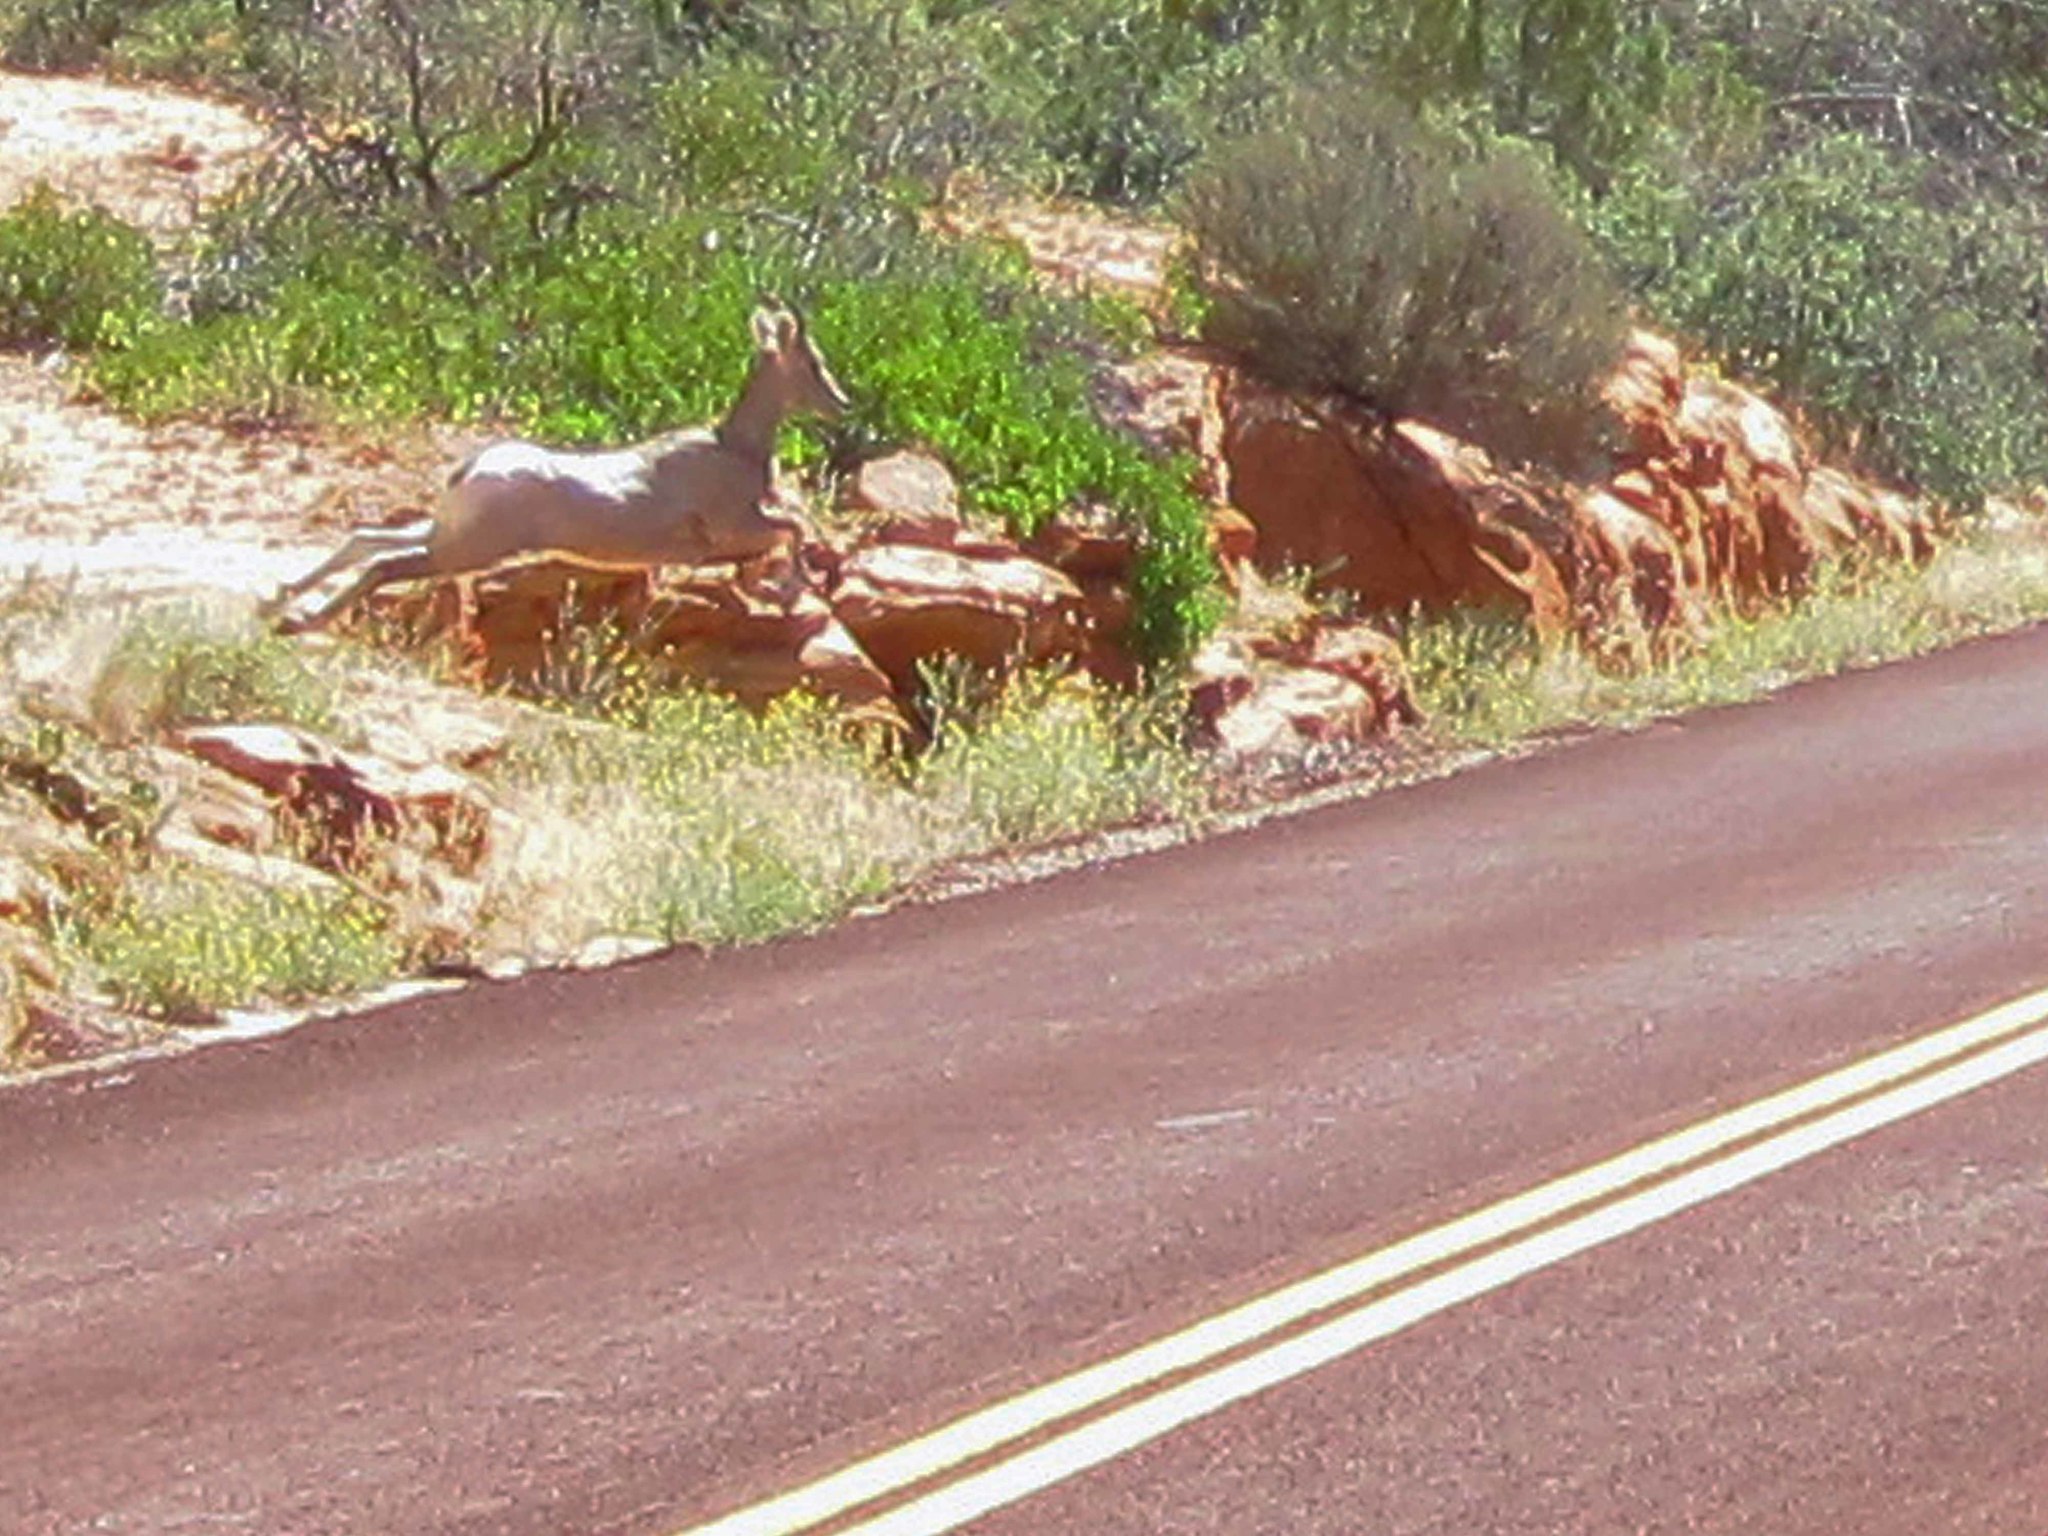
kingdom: Animalia
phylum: Chordata
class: Mammalia
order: Artiodactyla
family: Bovidae
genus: Ovis
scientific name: Ovis canadensis
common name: Bighorn sheep
